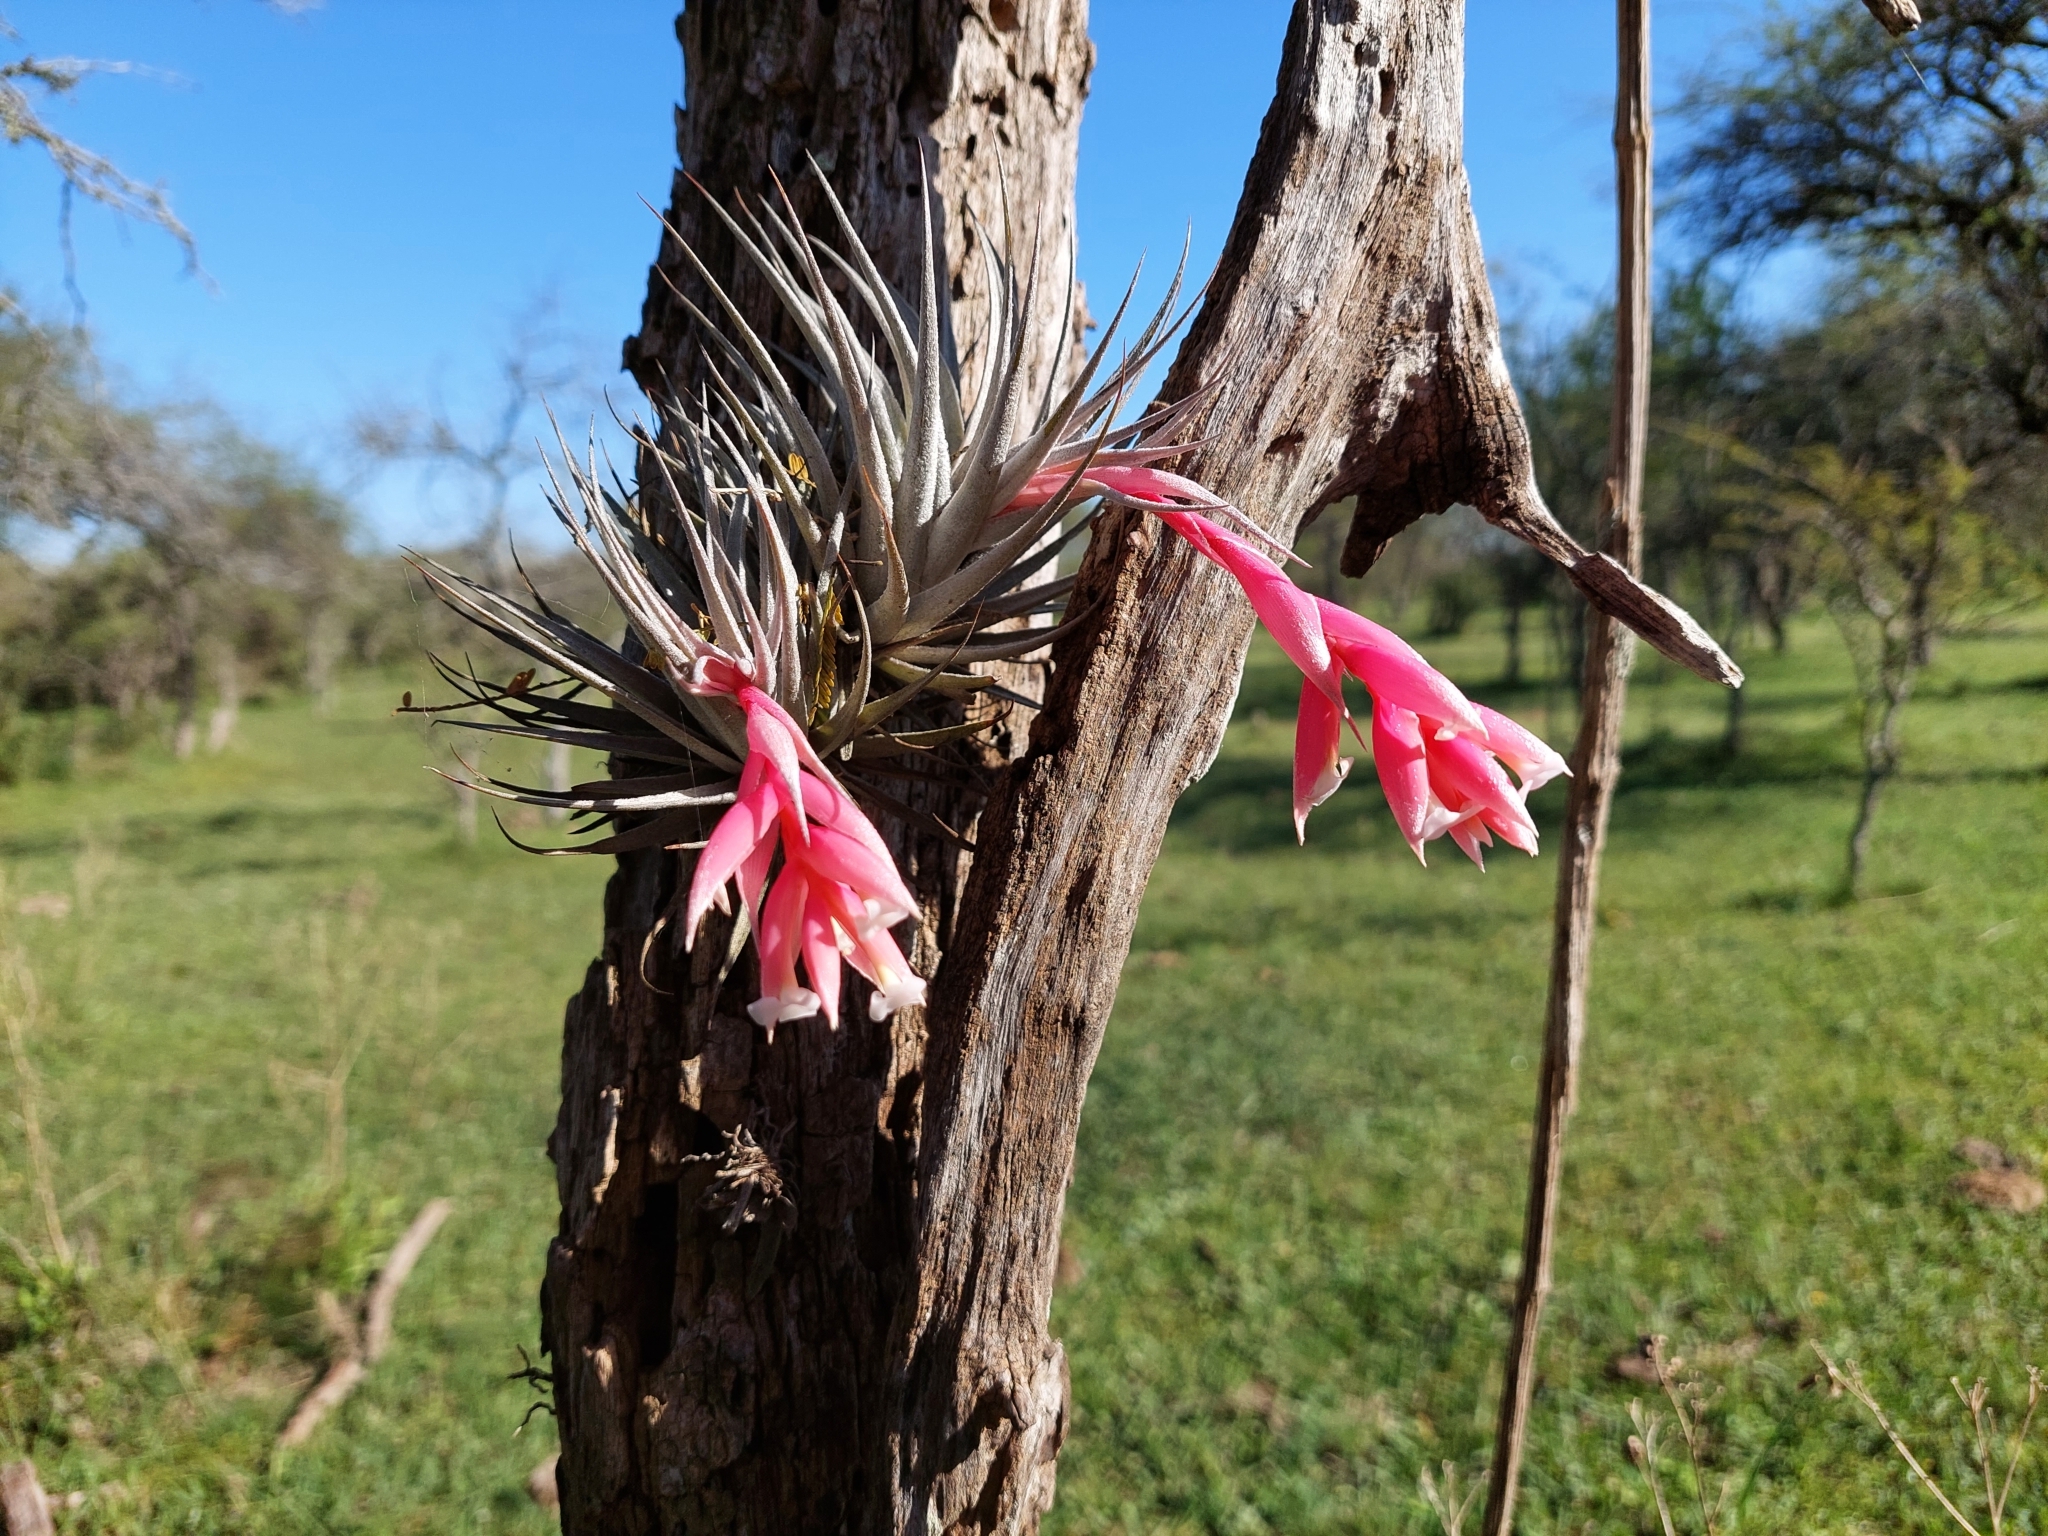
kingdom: Plantae
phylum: Tracheophyta
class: Liliopsida
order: Poales
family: Bromeliaceae
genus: Tillandsia
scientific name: Tillandsia recurvifolia
